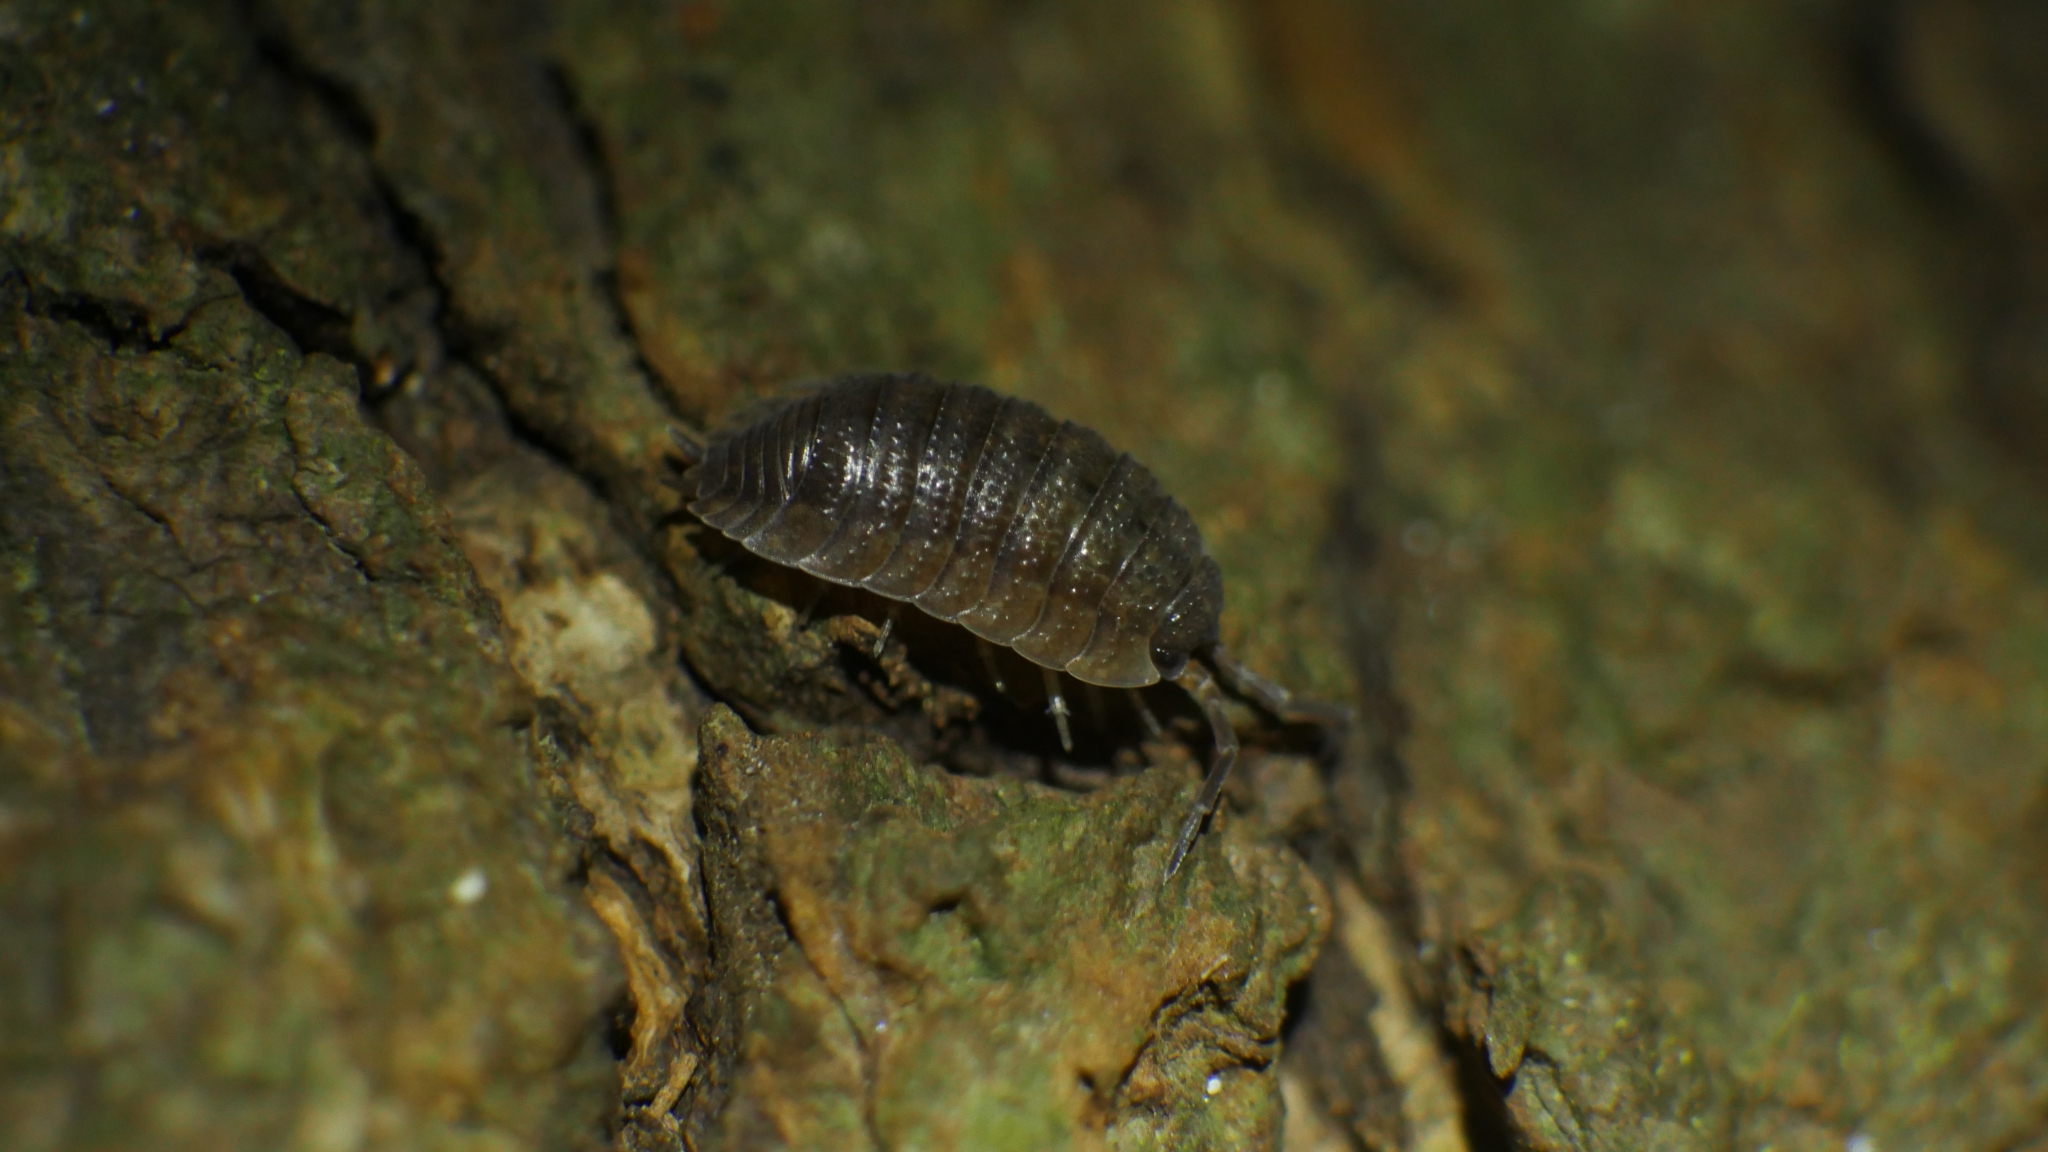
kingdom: Animalia
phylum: Arthropoda
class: Malacostraca
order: Isopoda
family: Porcellionidae
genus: Porcellio
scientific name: Porcellio scaber
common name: Common rough woodlouse
